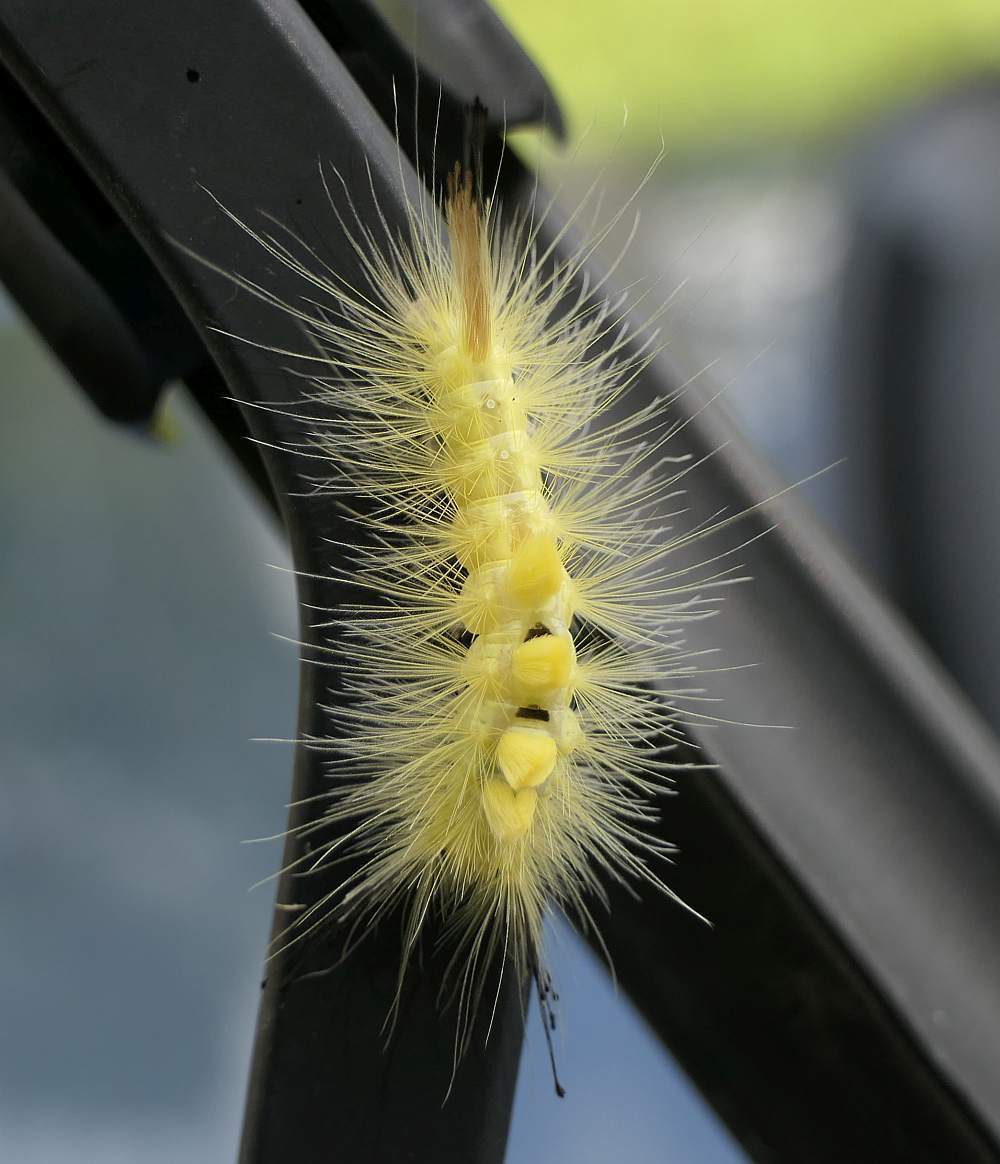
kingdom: Animalia
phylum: Arthropoda
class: Insecta
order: Lepidoptera
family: Erebidae
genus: Orgyia
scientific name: Orgyia definita
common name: Definite tussock moth
